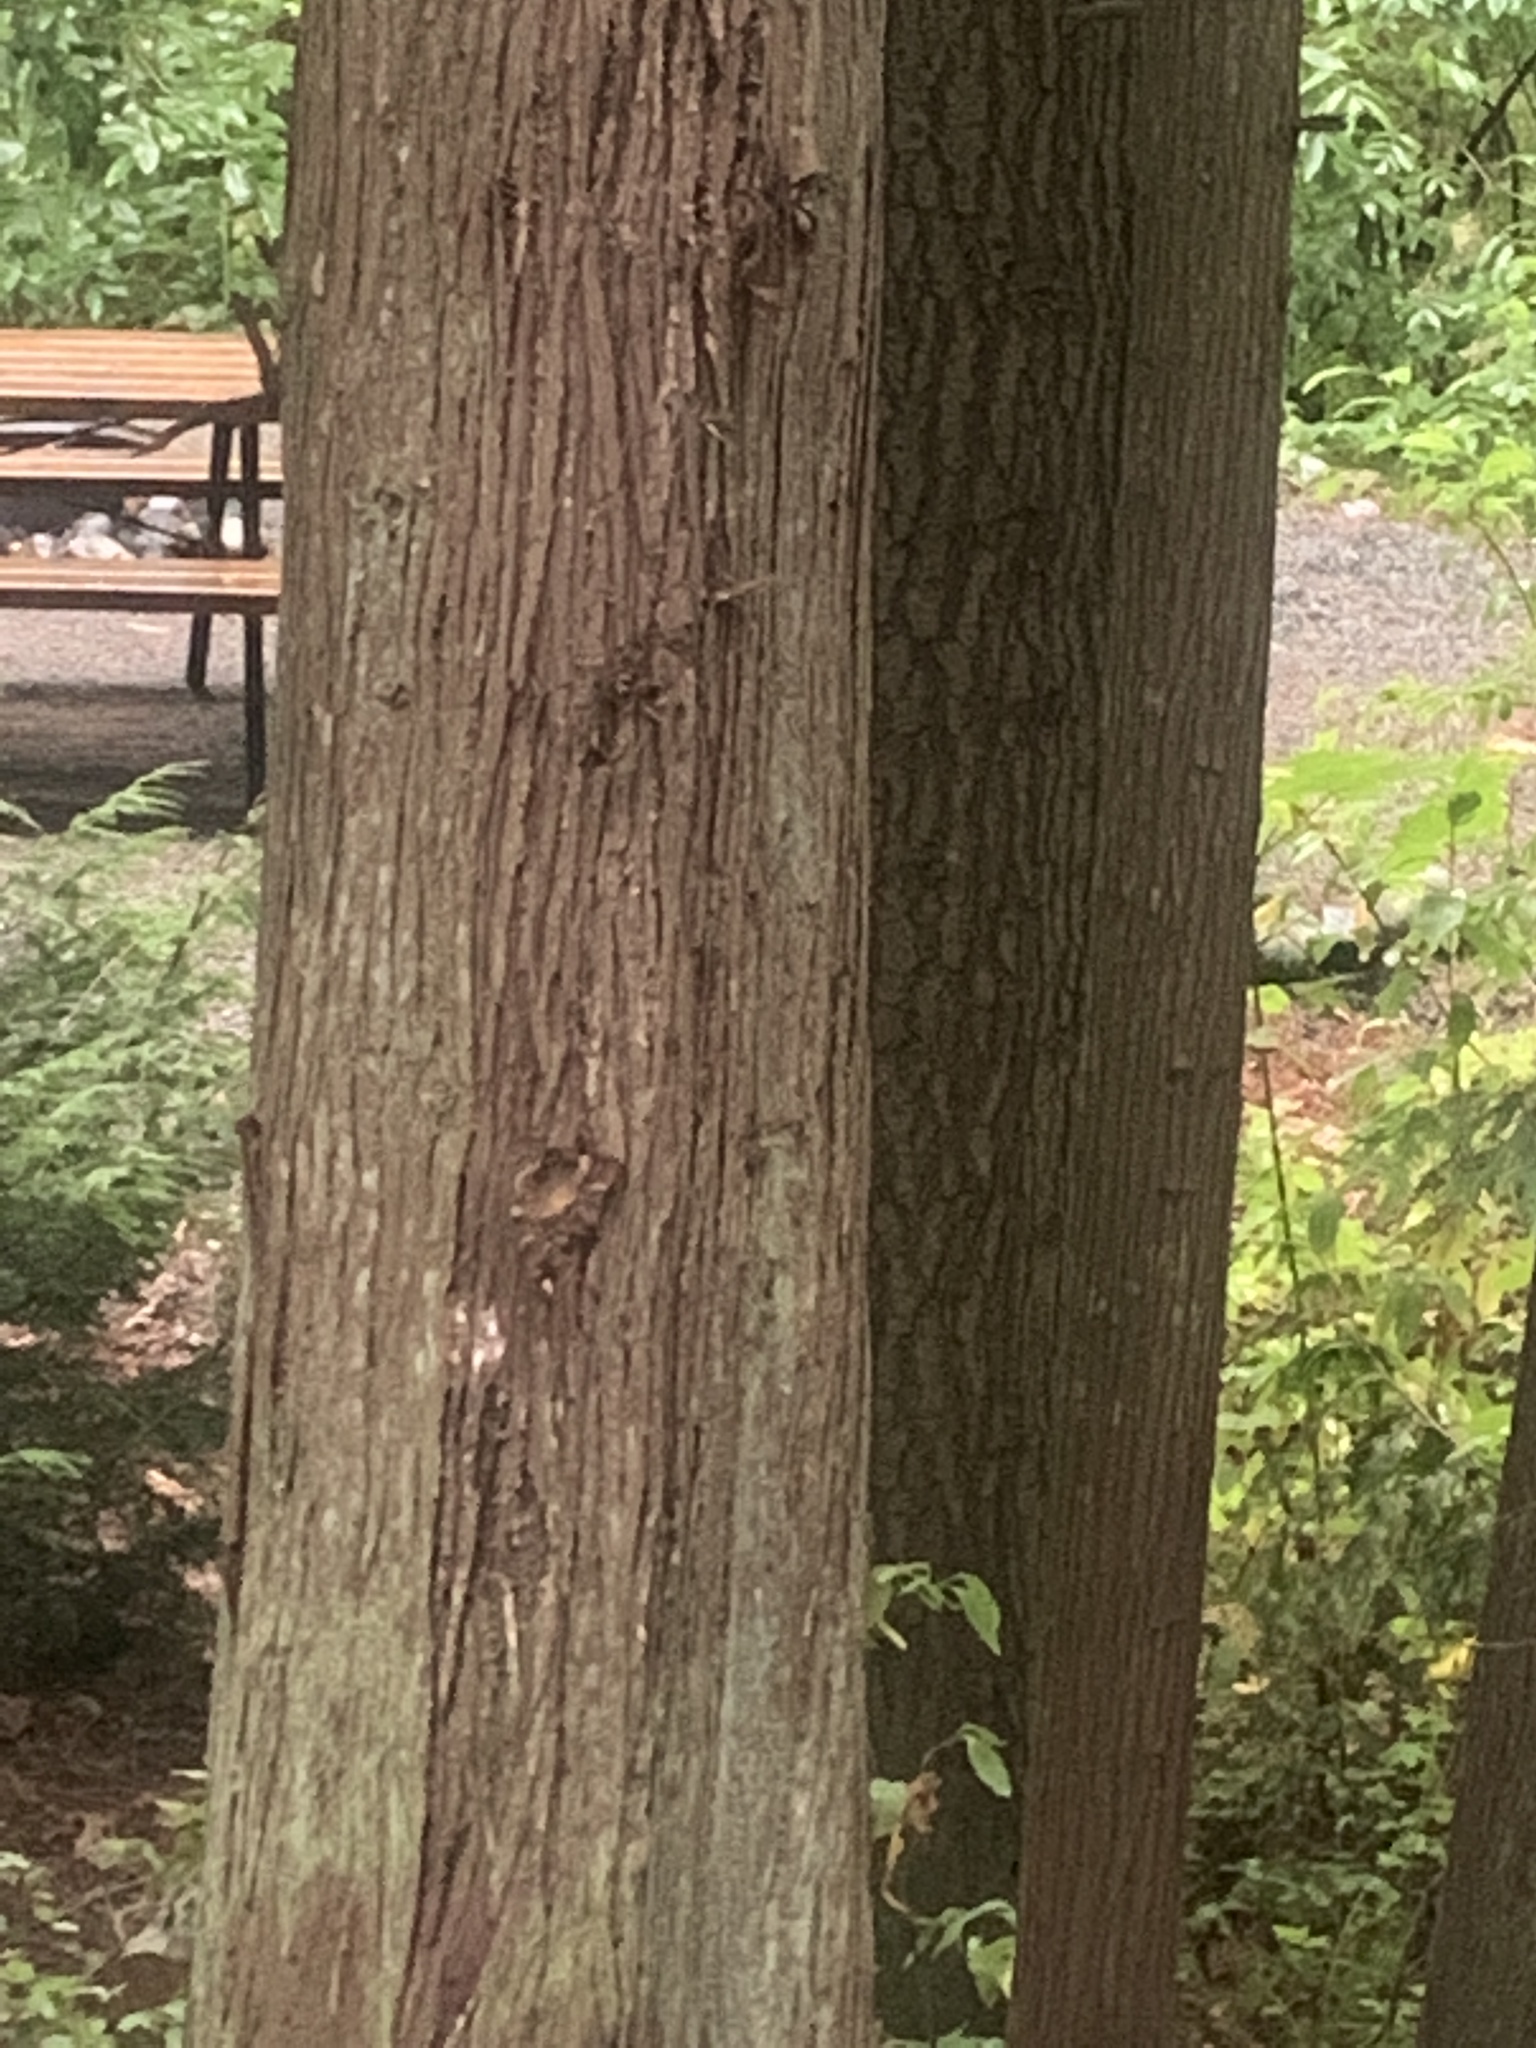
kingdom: Plantae
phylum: Tracheophyta
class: Pinopsida
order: Pinales
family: Cupressaceae
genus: Thuja
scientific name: Thuja plicata
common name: Western red-cedar
